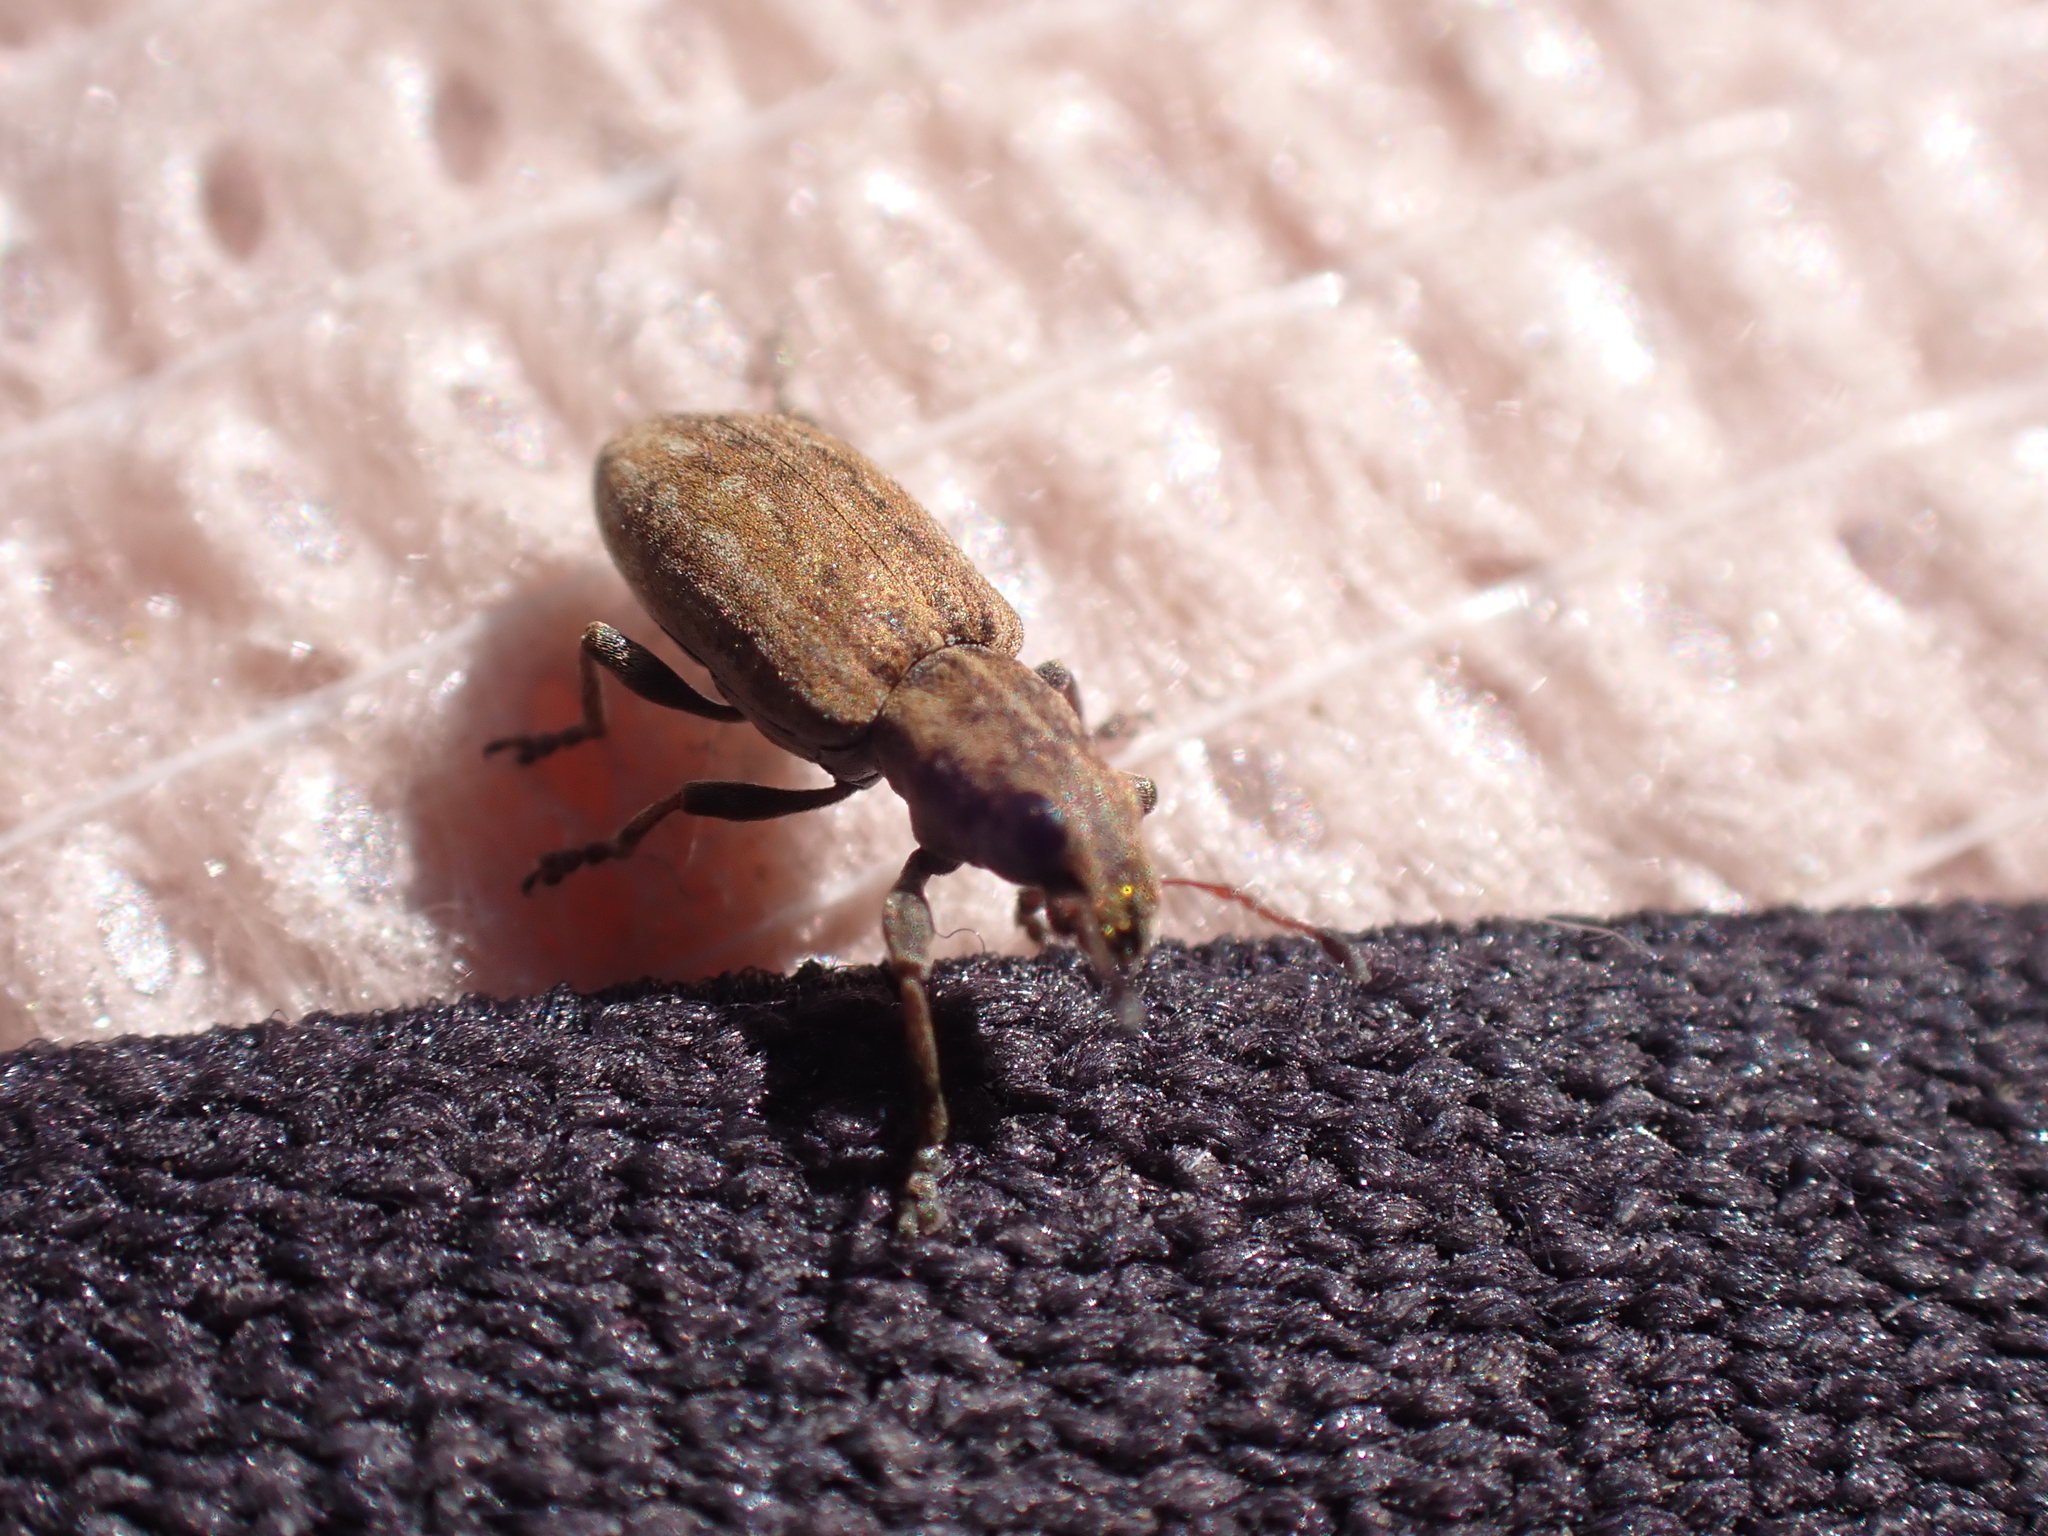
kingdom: Animalia
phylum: Arthropoda
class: Insecta
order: Coleoptera
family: Curculionidae
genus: Sitona
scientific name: Sitona obsoletus
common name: Weevil
